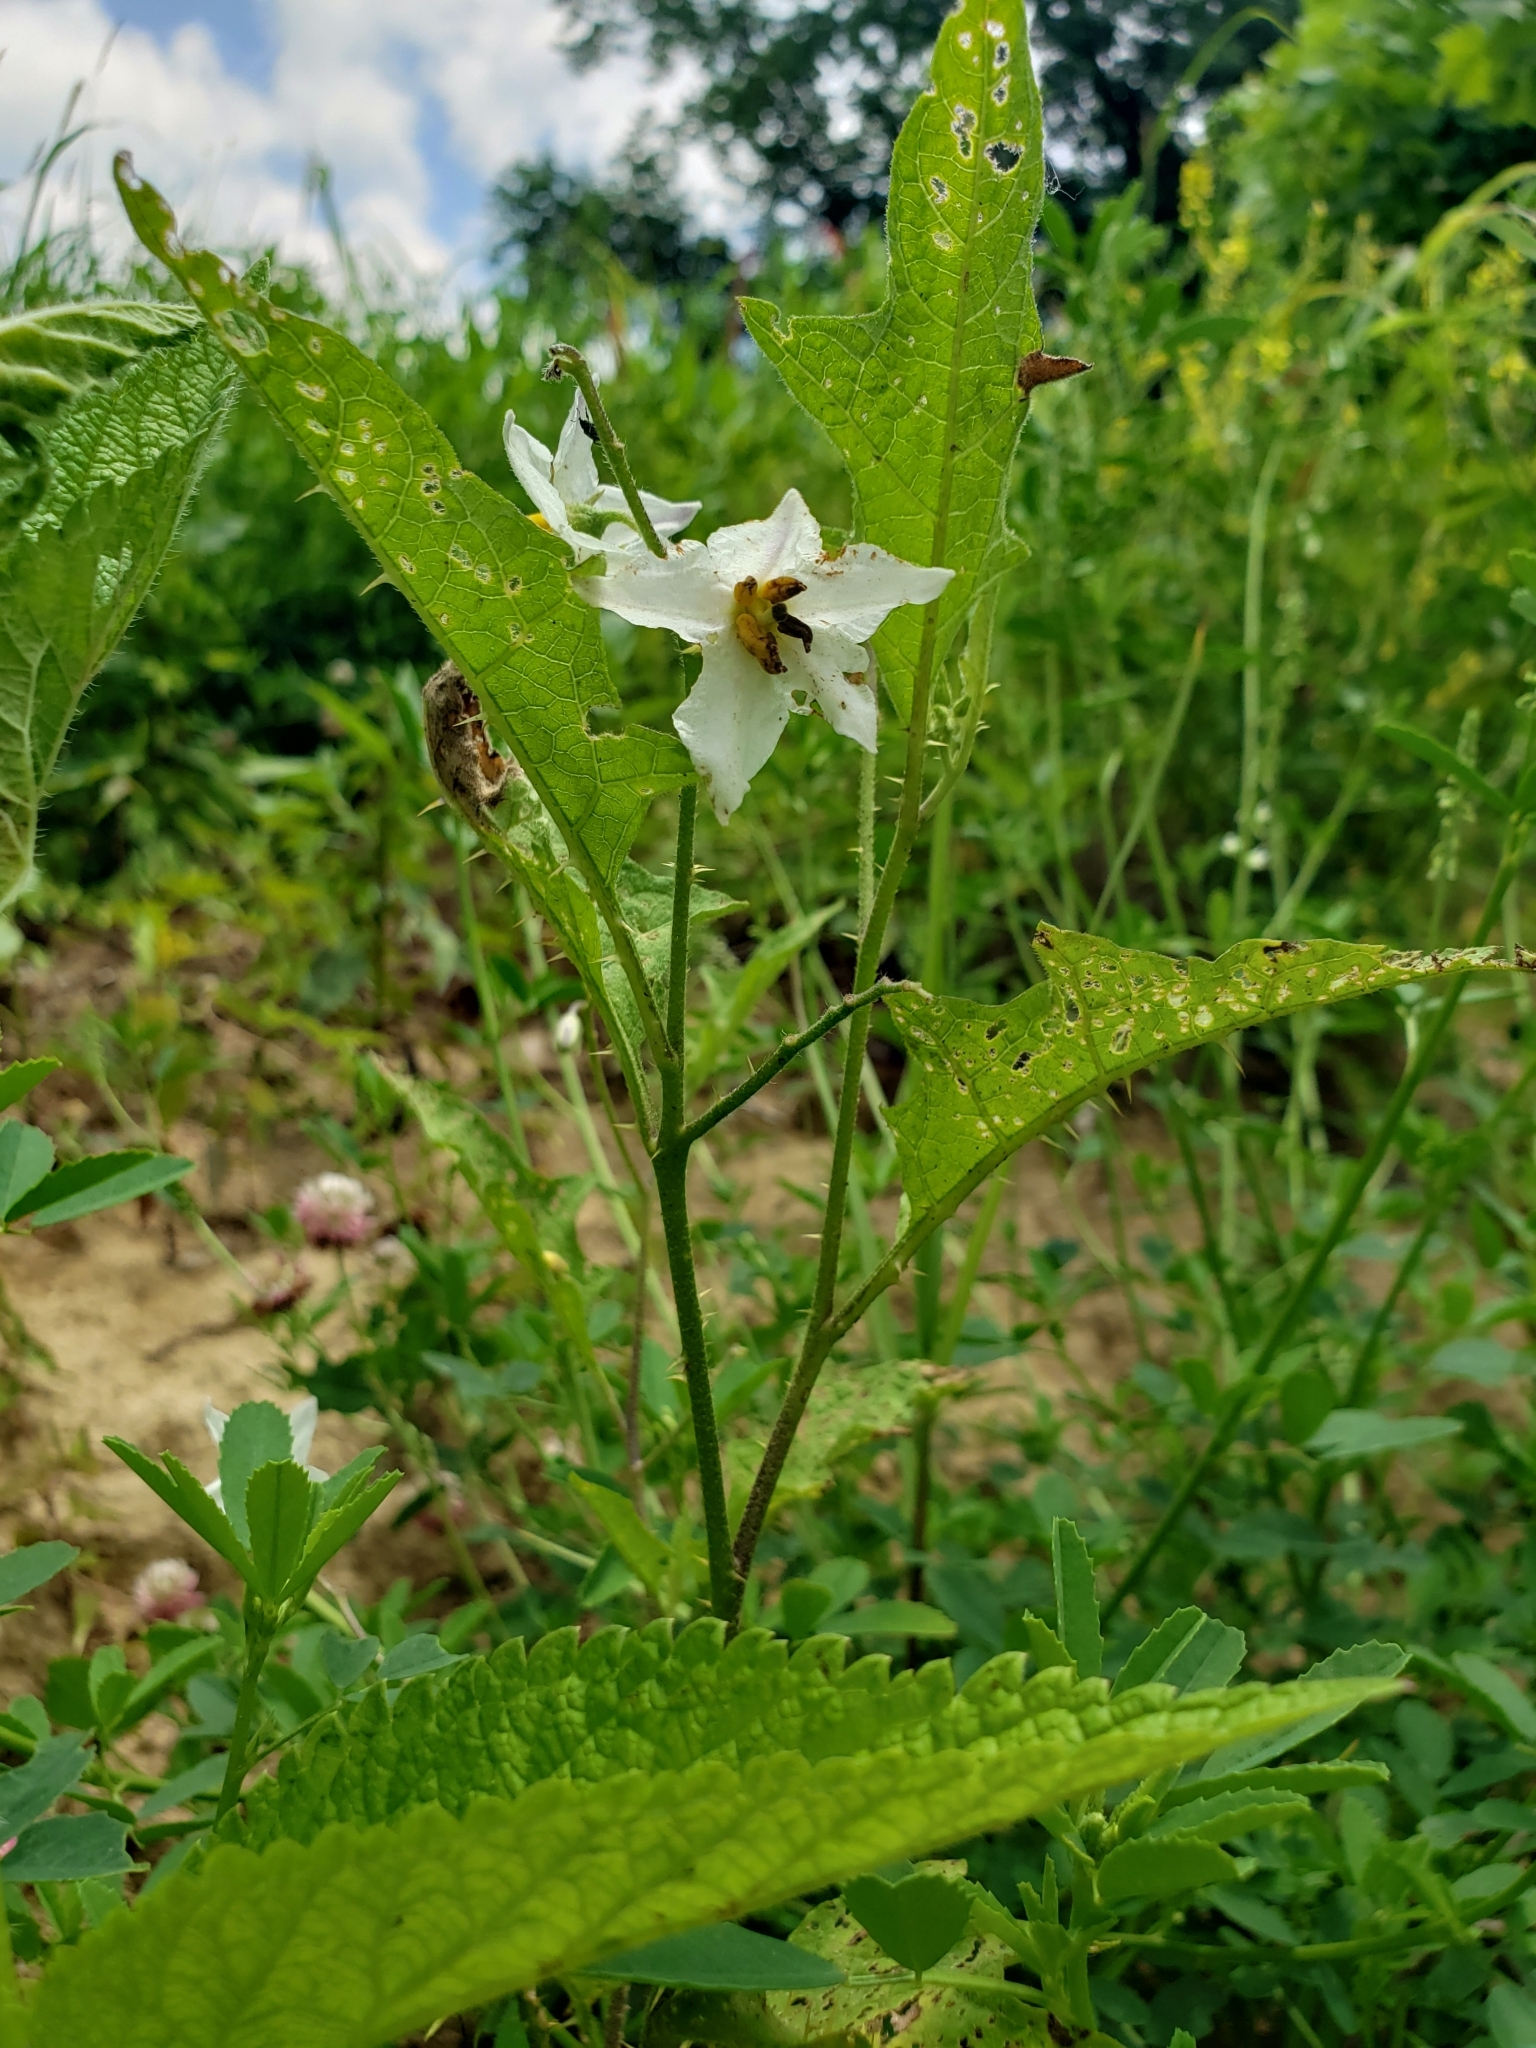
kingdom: Plantae
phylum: Tracheophyta
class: Magnoliopsida
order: Solanales
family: Solanaceae
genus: Solanum
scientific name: Solanum carolinense
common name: Horse-nettle
